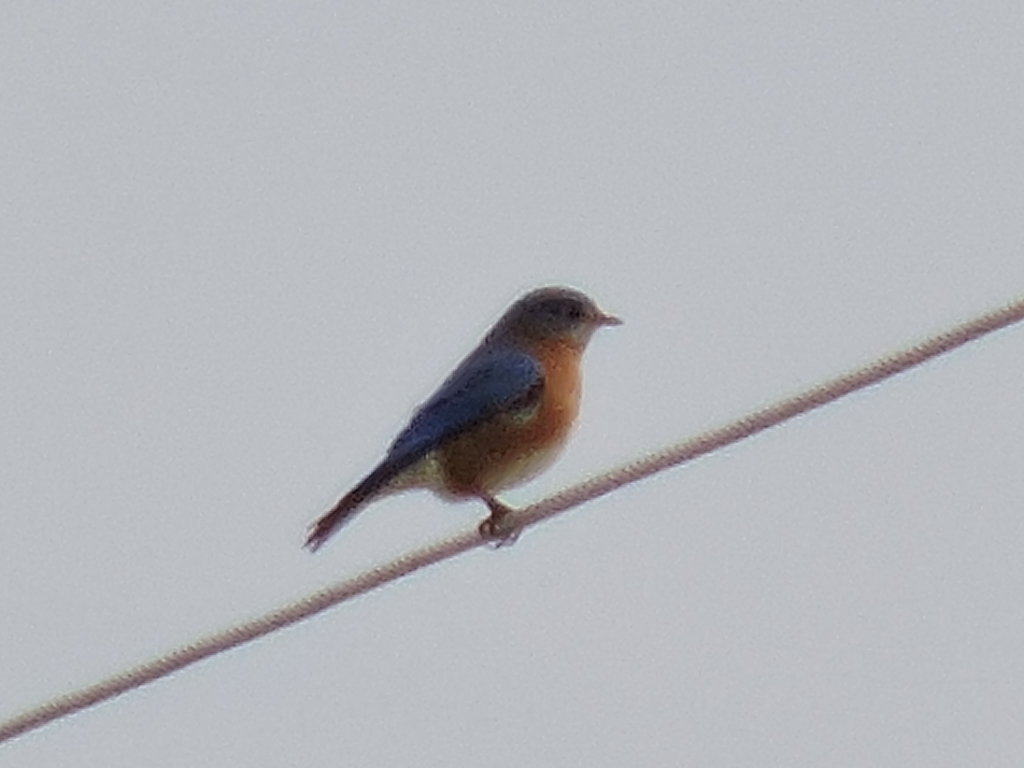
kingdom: Animalia
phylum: Chordata
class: Aves
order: Passeriformes
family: Turdidae
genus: Sialia
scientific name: Sialia sialis
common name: Eastern bluebird
